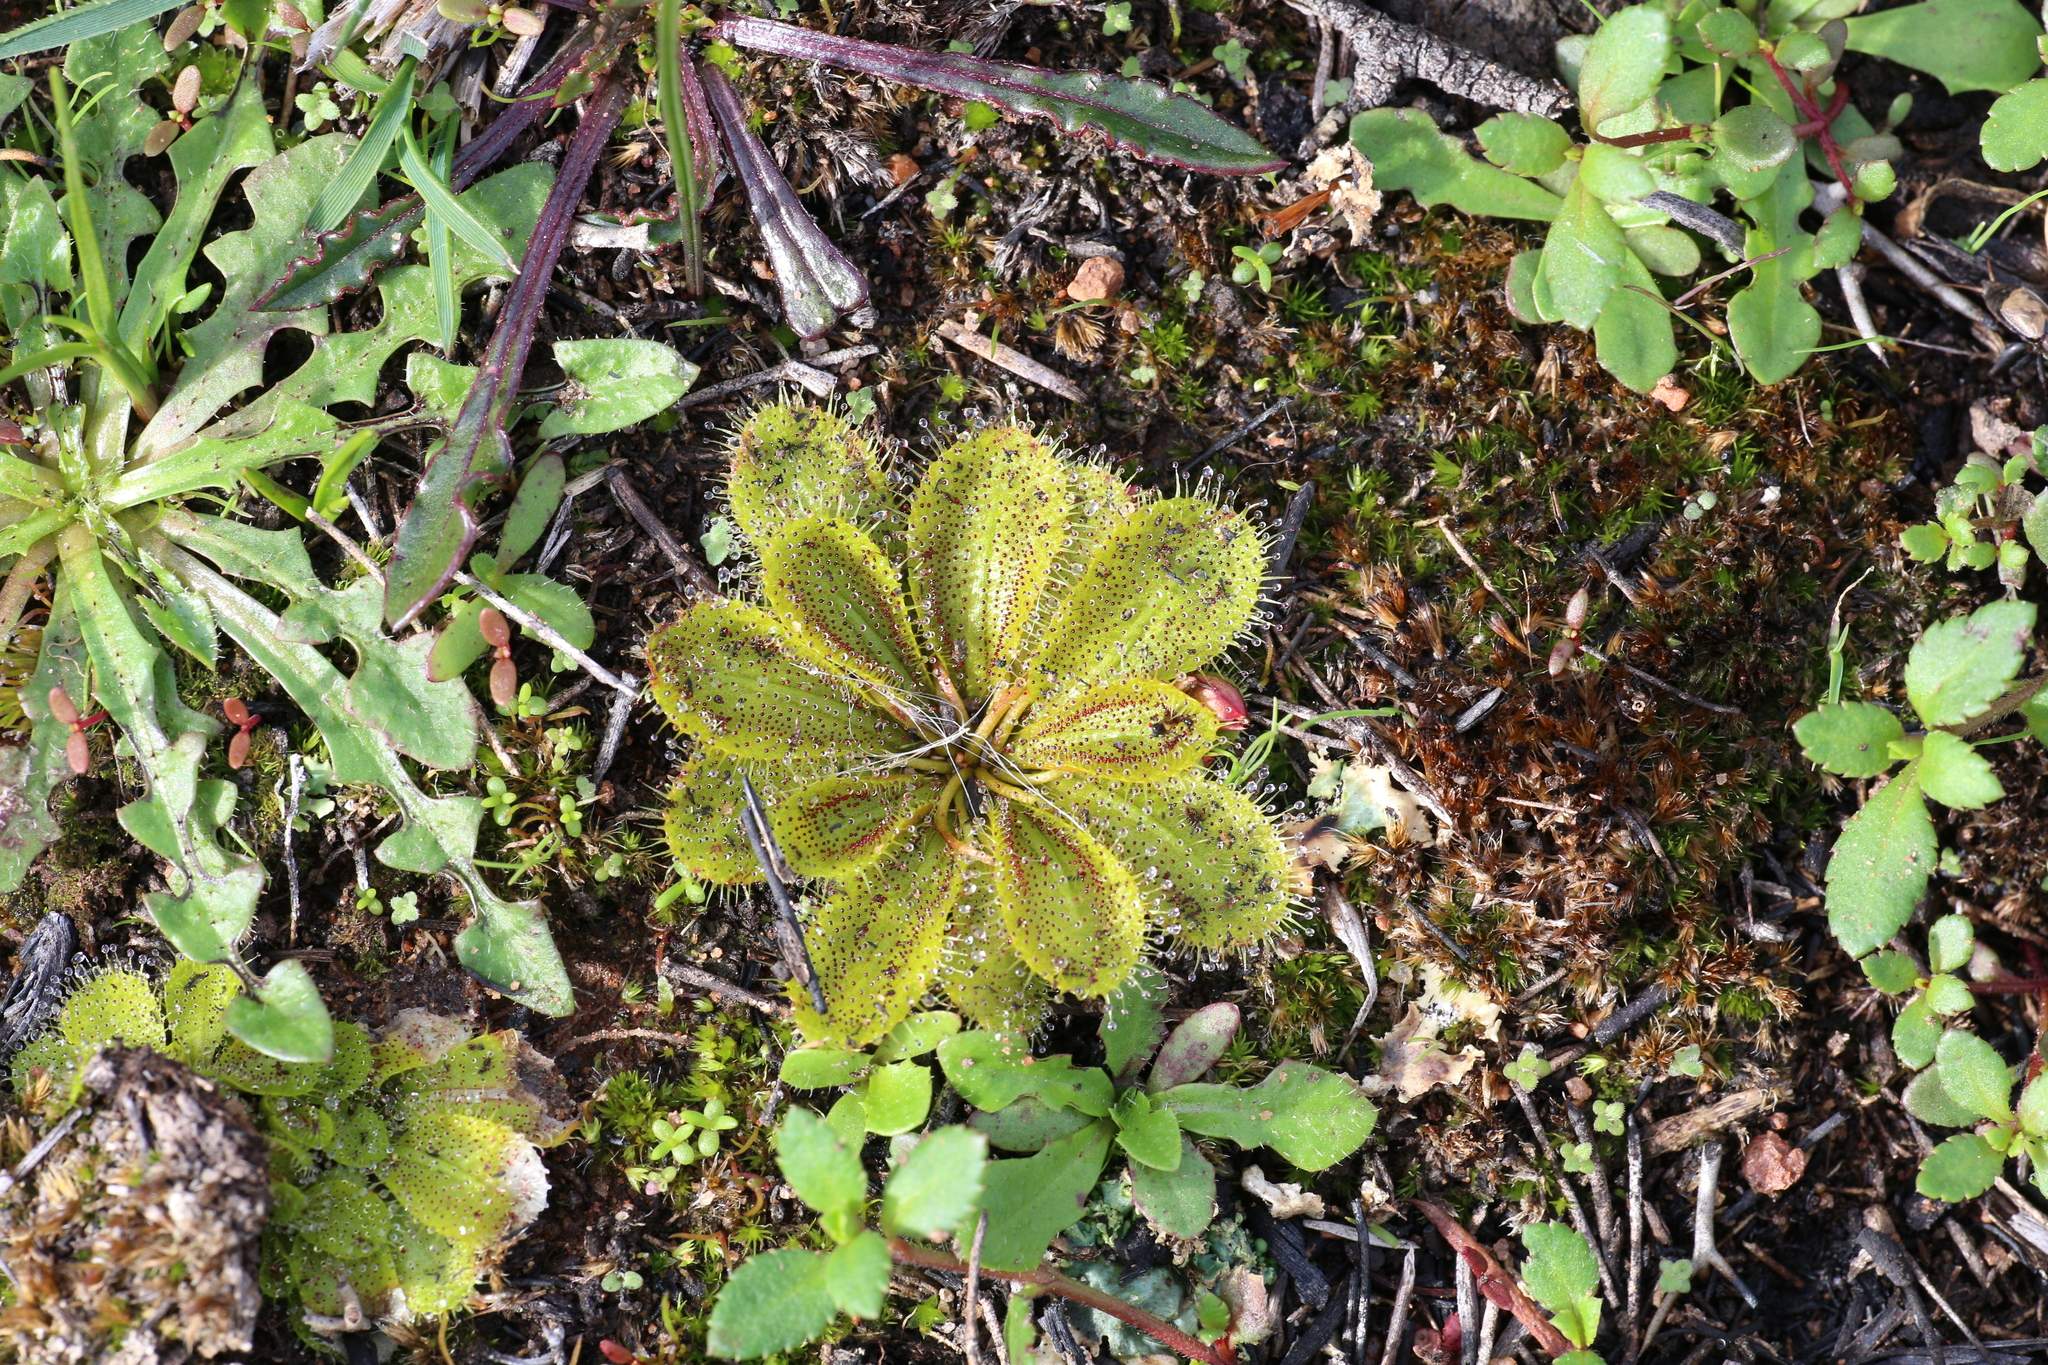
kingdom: Plantae
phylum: Tracheophyta
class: Magnoliopsida
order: Caryophyllales
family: Droseraceae
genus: Drosera
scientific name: Drosera bulbosa
